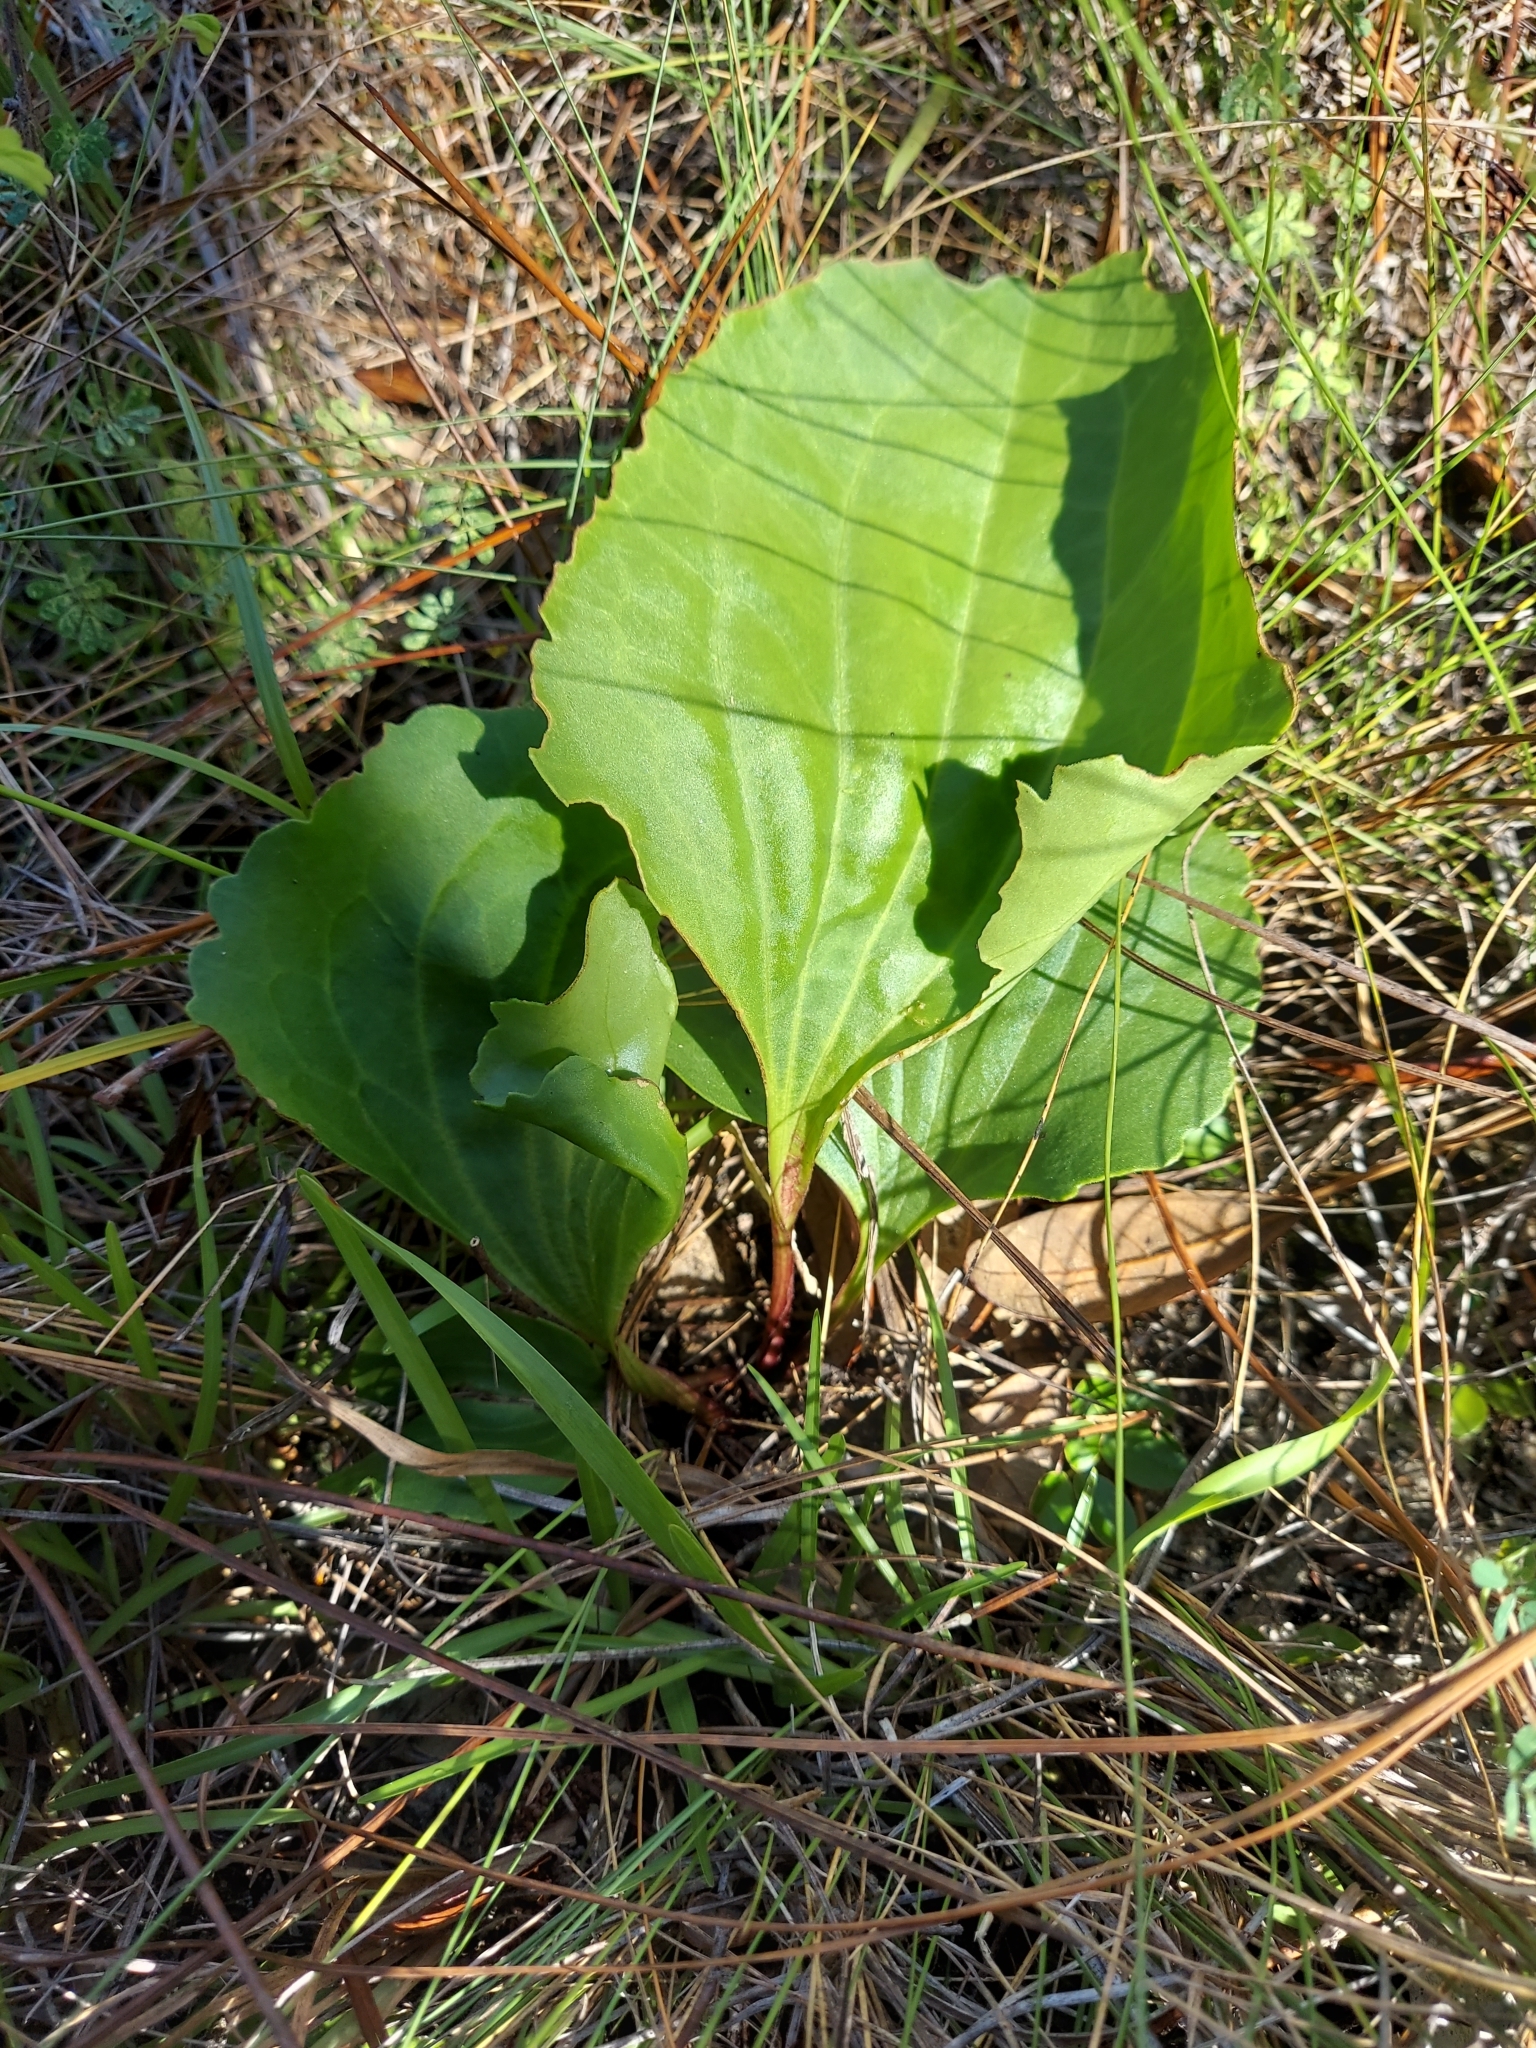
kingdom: Plantae
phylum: Tracheophyta
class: Magnoliopsida
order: Asterales
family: Asteraceae
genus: Arnoglossum
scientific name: Arnoglossum floridanum
